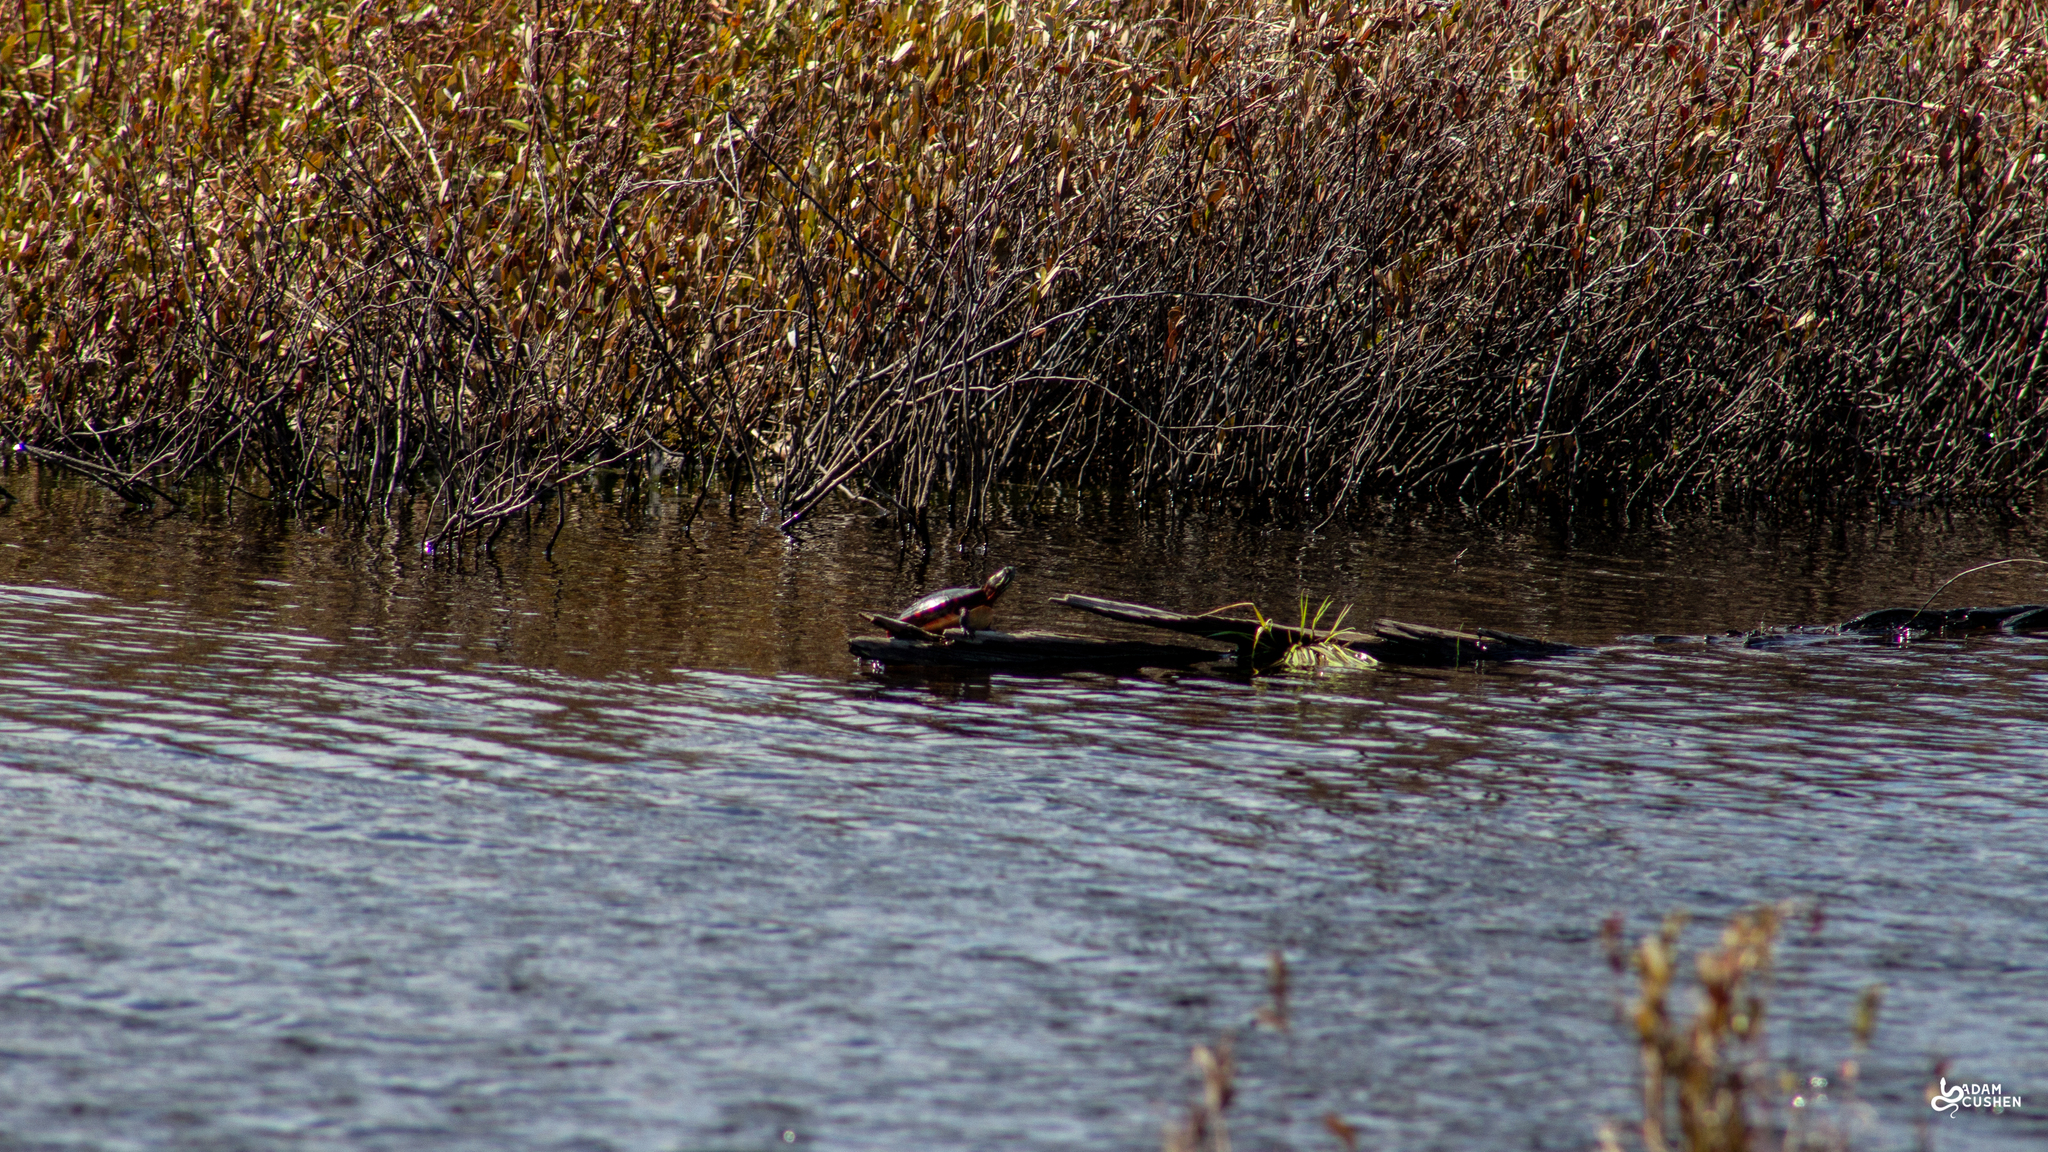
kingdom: Animalia
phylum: Chordata
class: Testudines
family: Emydidae
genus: Chrysemys
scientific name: Chrysemys picta
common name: Painted turtle
